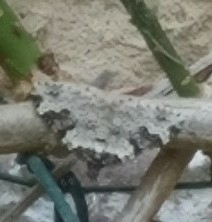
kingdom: Animalia
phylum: Arthropoda
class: Insecta
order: Lepidoptera
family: Geometridae
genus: Xanthorhoe
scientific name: Xanthorhoe fluctuata
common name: Garden carpet
